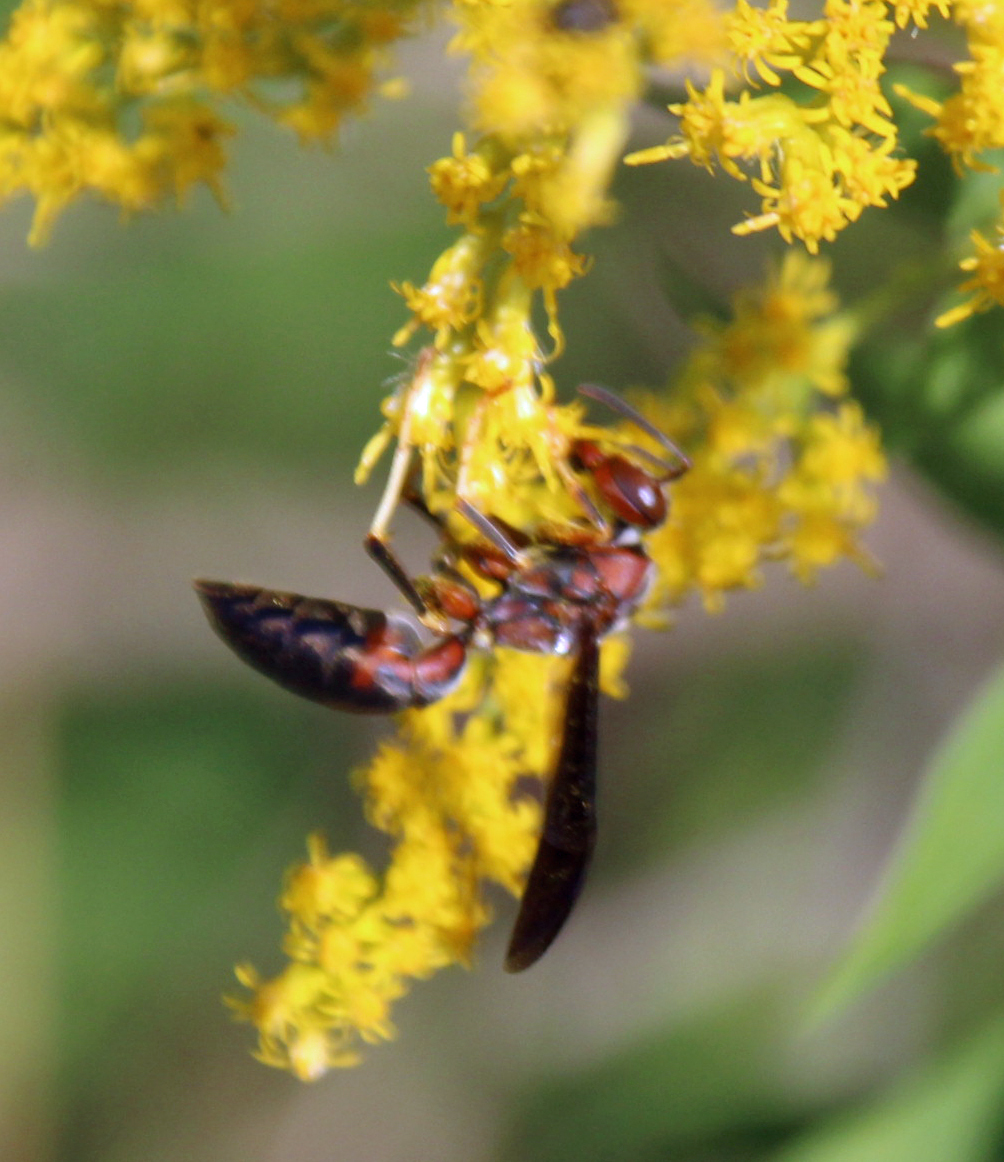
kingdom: Animalia
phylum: Arthropoda
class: Insecta
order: Hymenoptera
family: Eumenidae
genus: Polistes
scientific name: Polistes metricus
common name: Metric paper wasp
